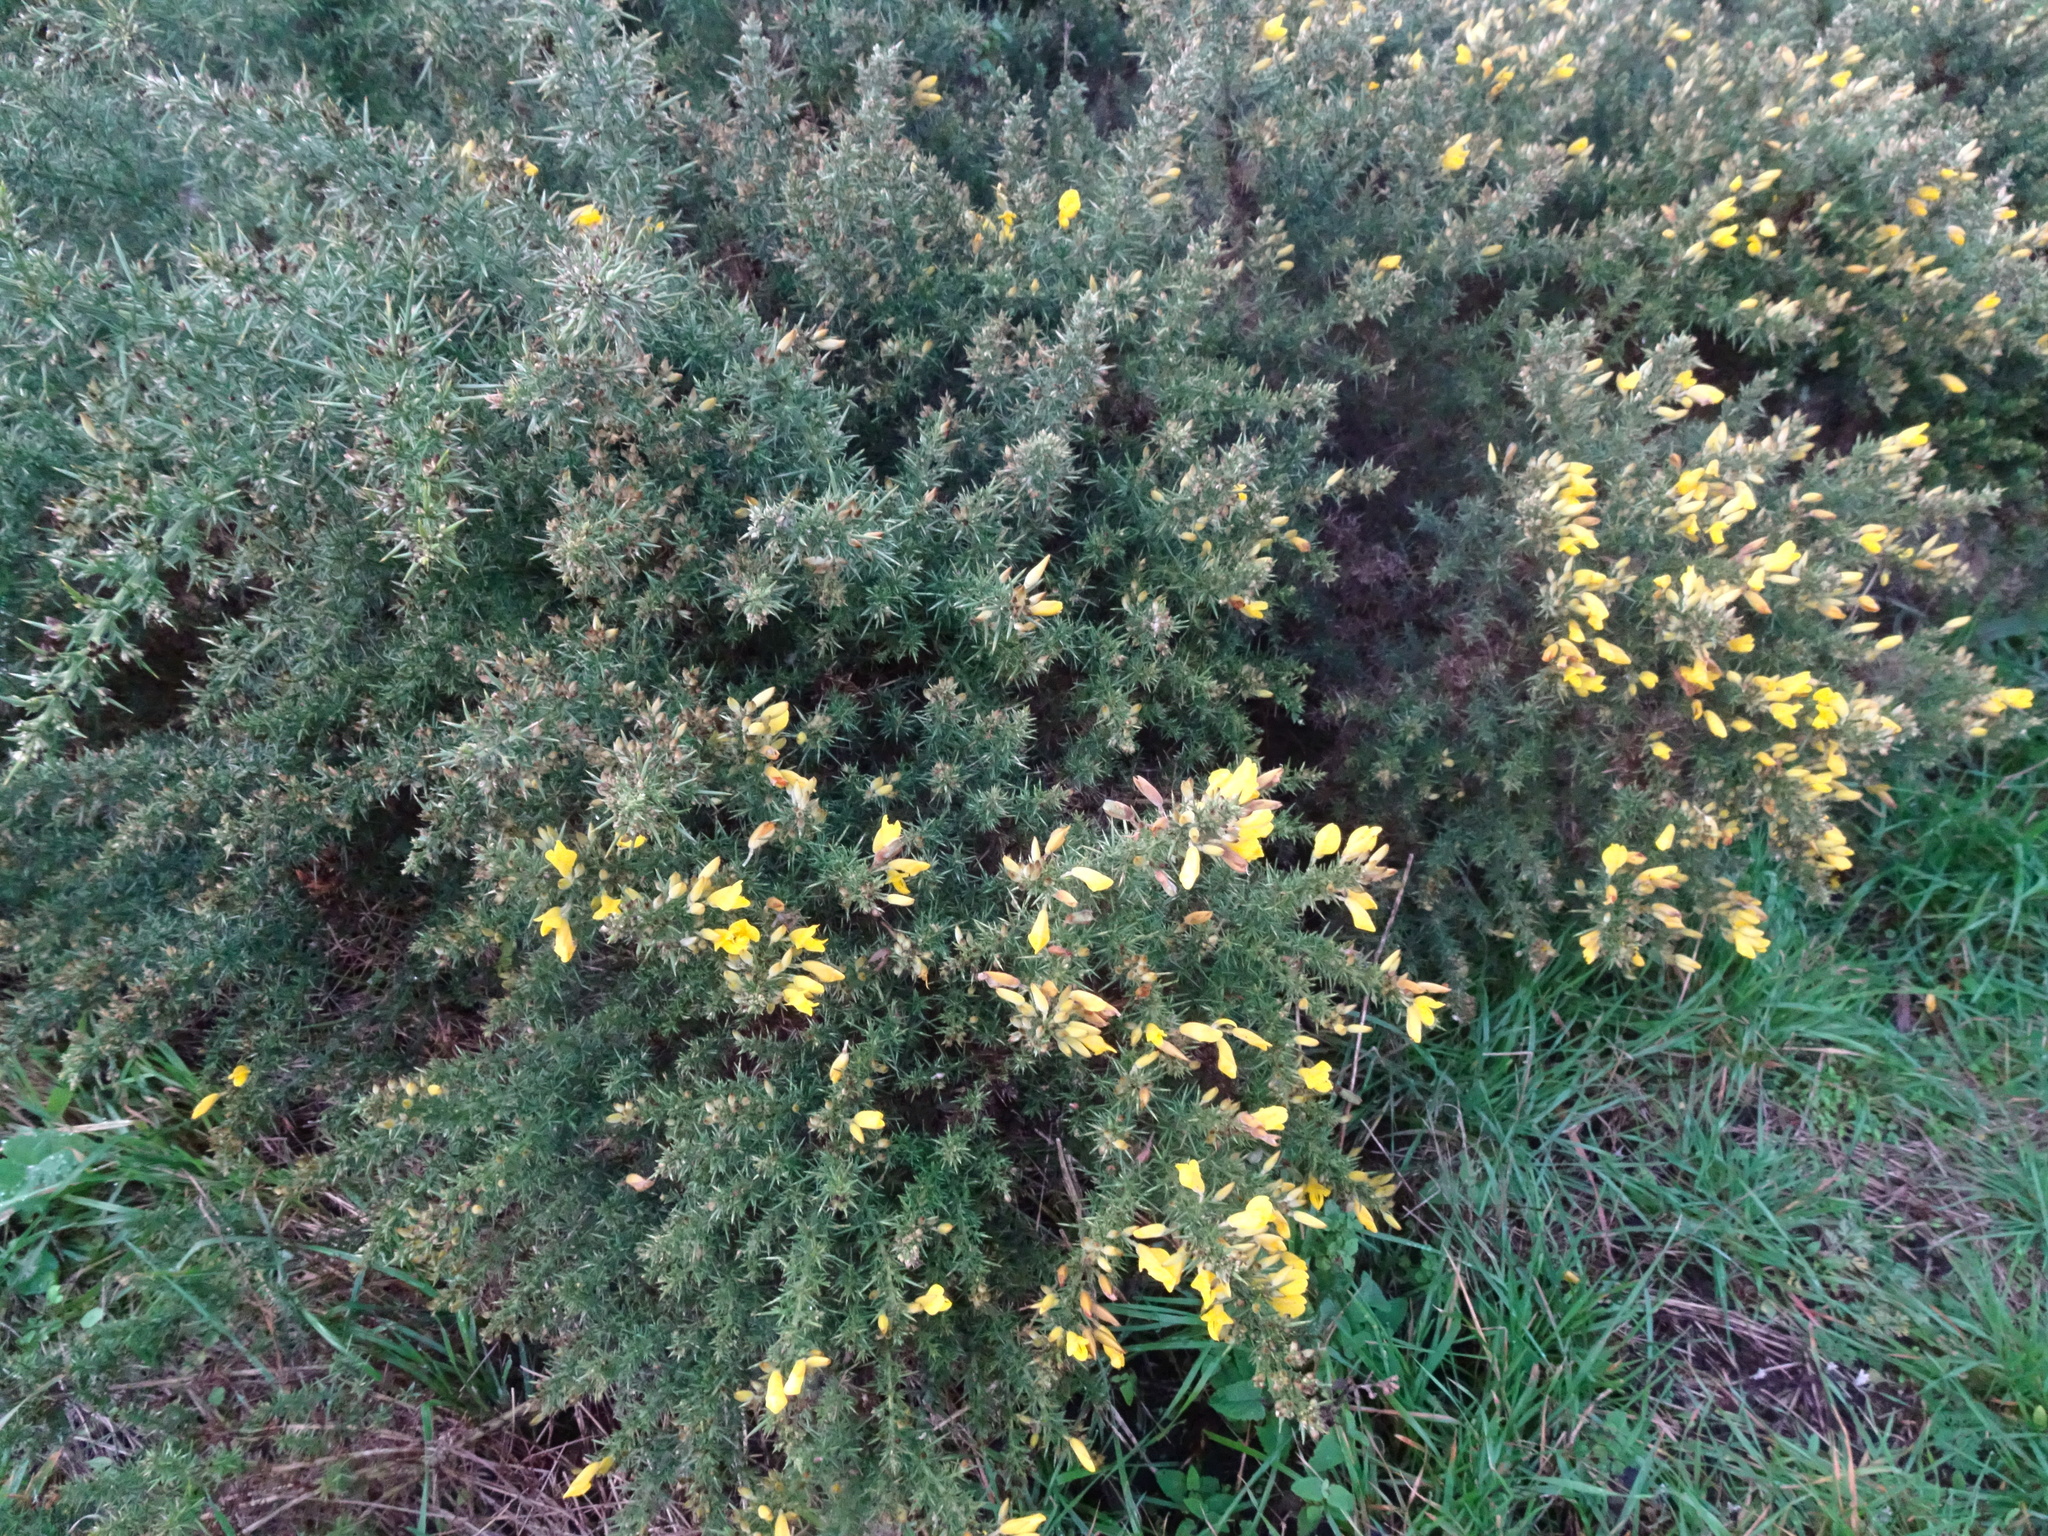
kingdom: Plantae
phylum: Tracheophyta
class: Magnoliopsida
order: Fabales
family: Fabaceae
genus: Ulex
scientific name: Ulex europaeus
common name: Common gorse
